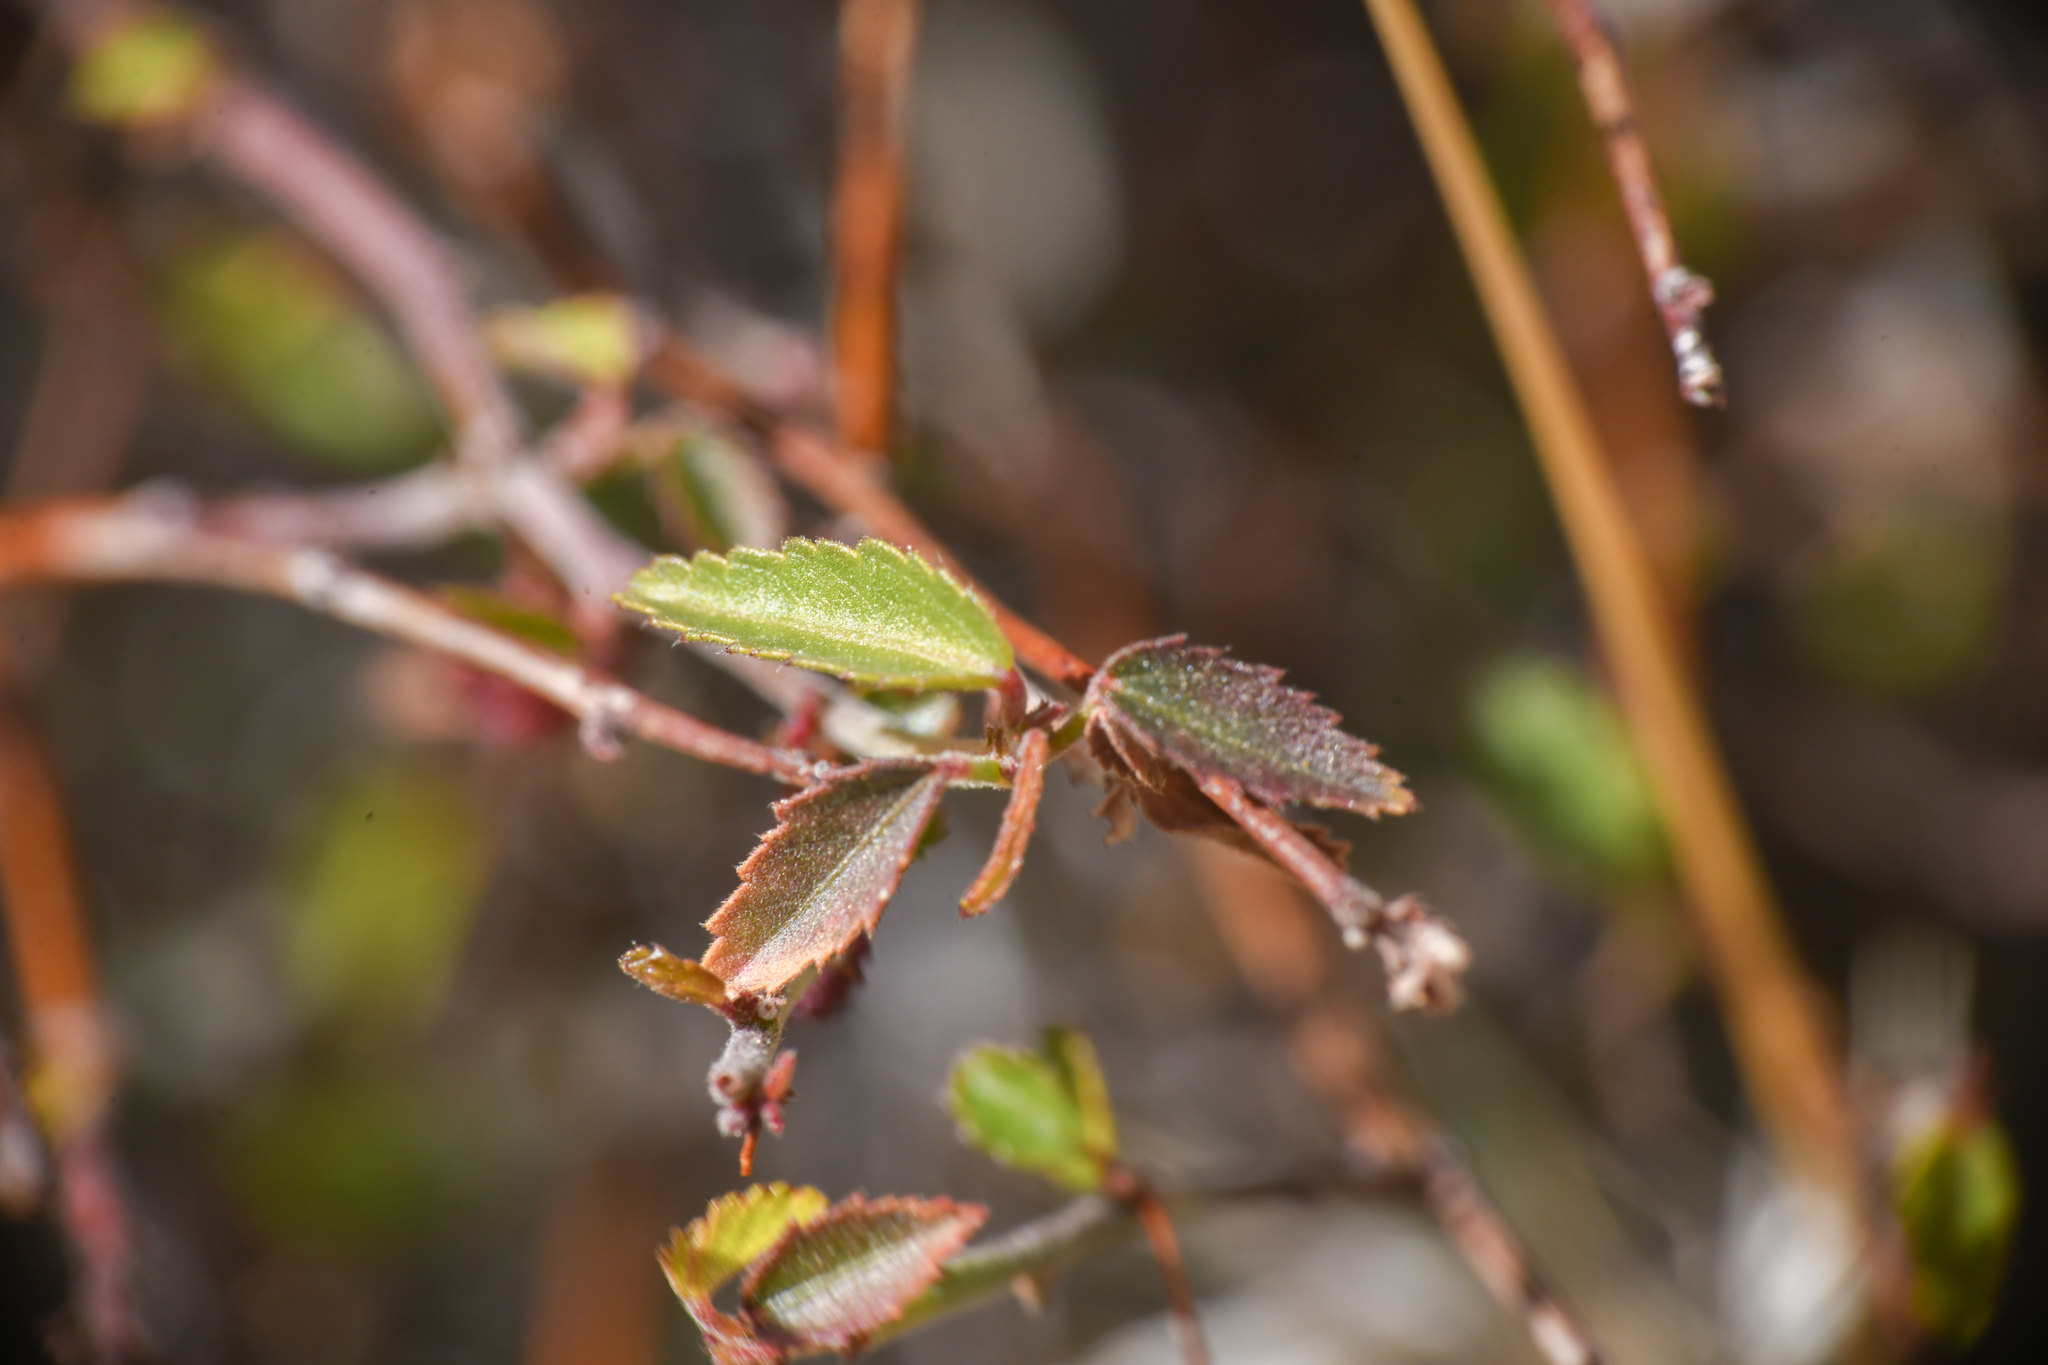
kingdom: Plantae
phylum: Tracheophyta
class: Magnoliopsida
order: Malvales
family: Malvaceae
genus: Ayenia
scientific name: Ayenia compacta
